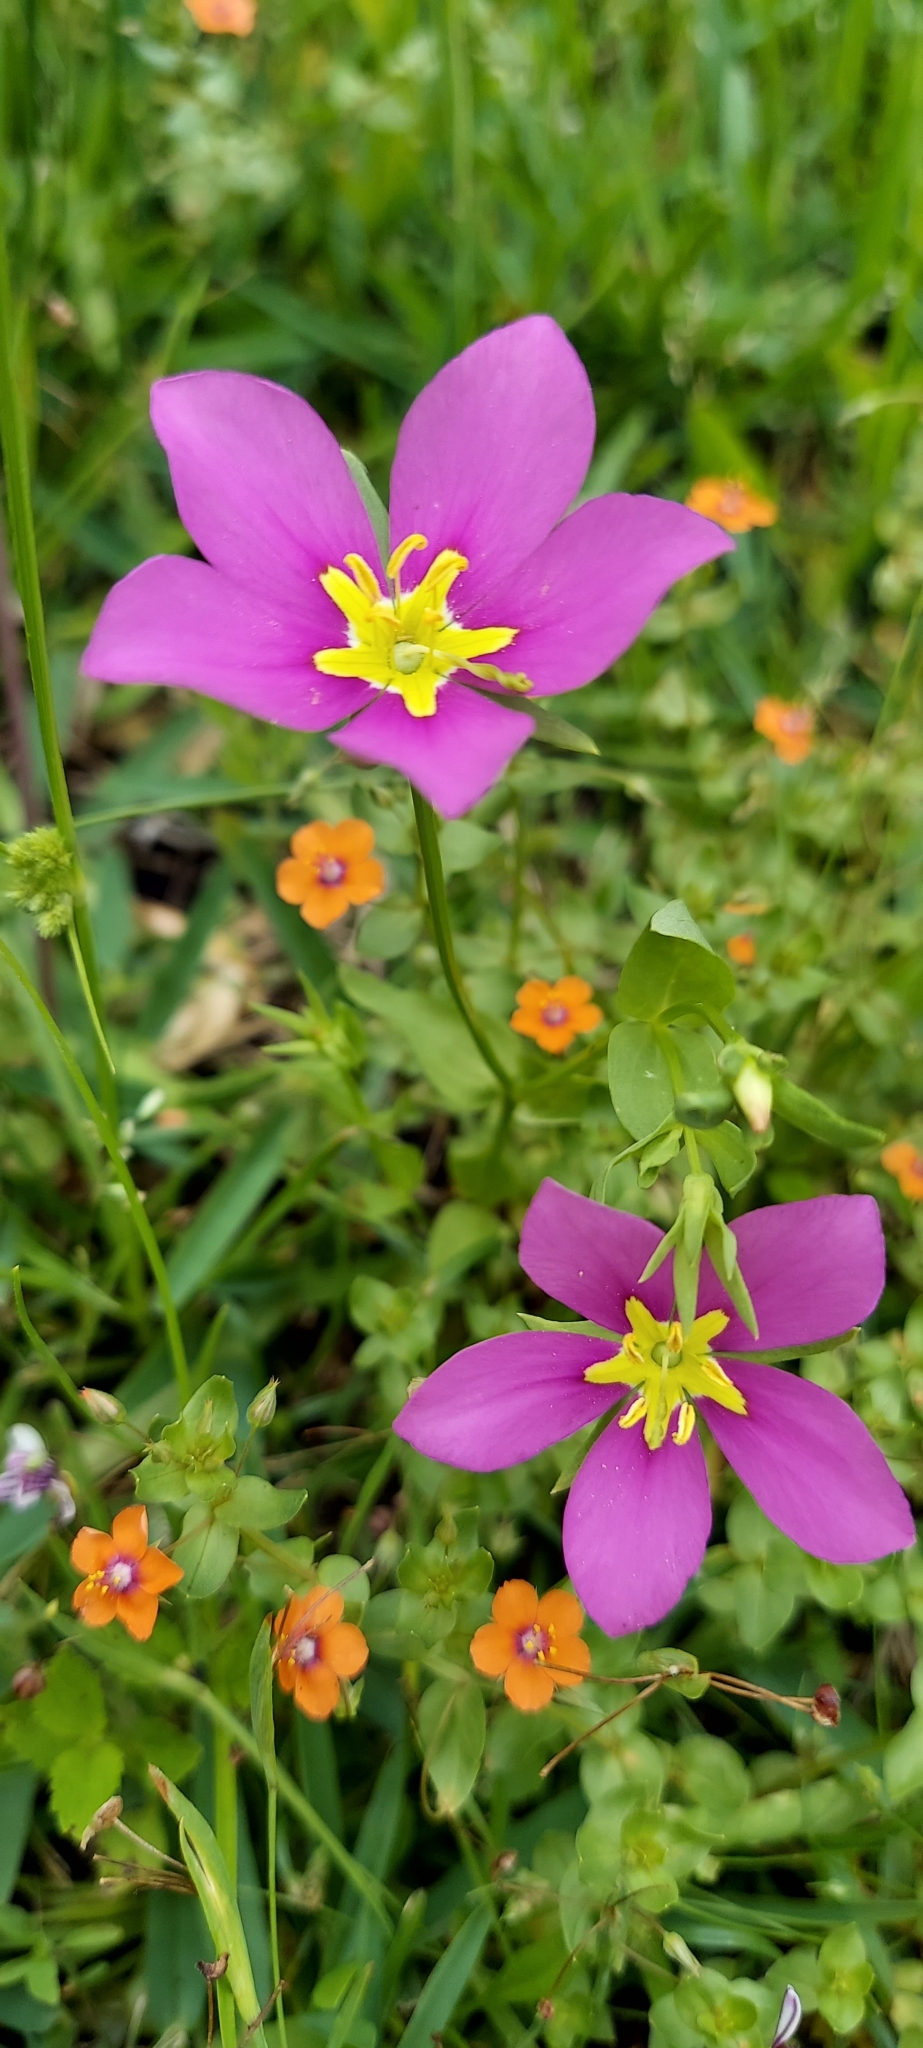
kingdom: Plantae
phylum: Tracheophyta
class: Magnoliopsida
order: Gentianales
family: Gentianaceae
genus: Sabatia
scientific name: Sabatia campestris
